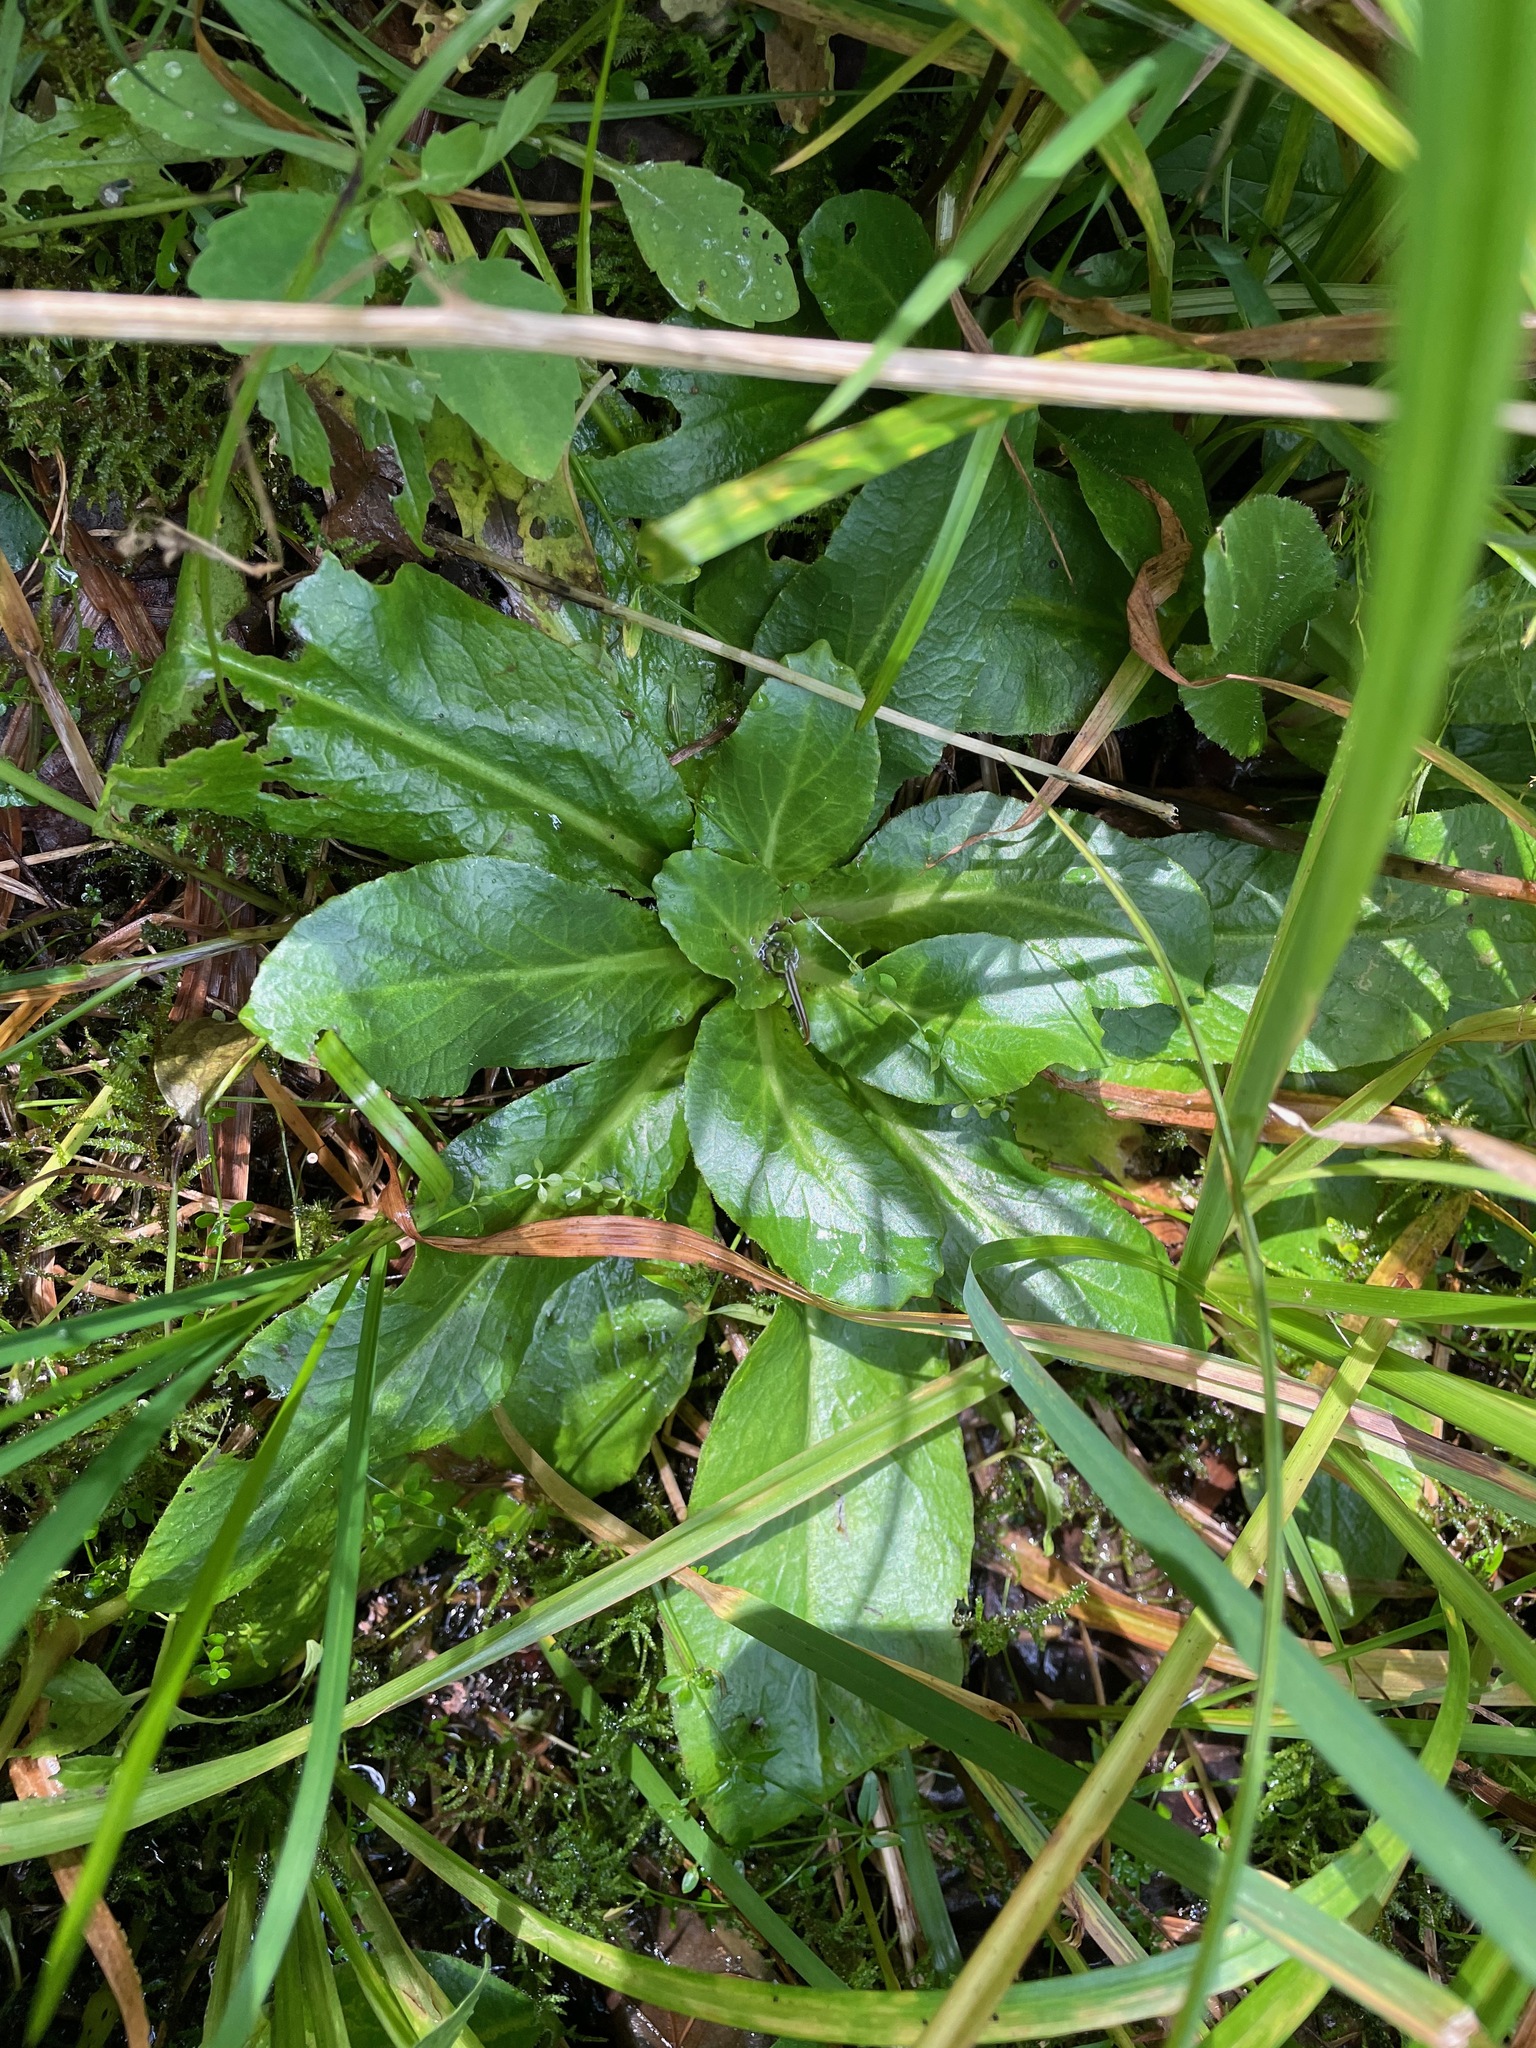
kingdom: Plantae
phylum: Tracheophyta
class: Magnoliopsida
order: Saxifragales
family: Saxifragaceae
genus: Micranthes
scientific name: Micranthes pensylvanica
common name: Marsh saxifrage
